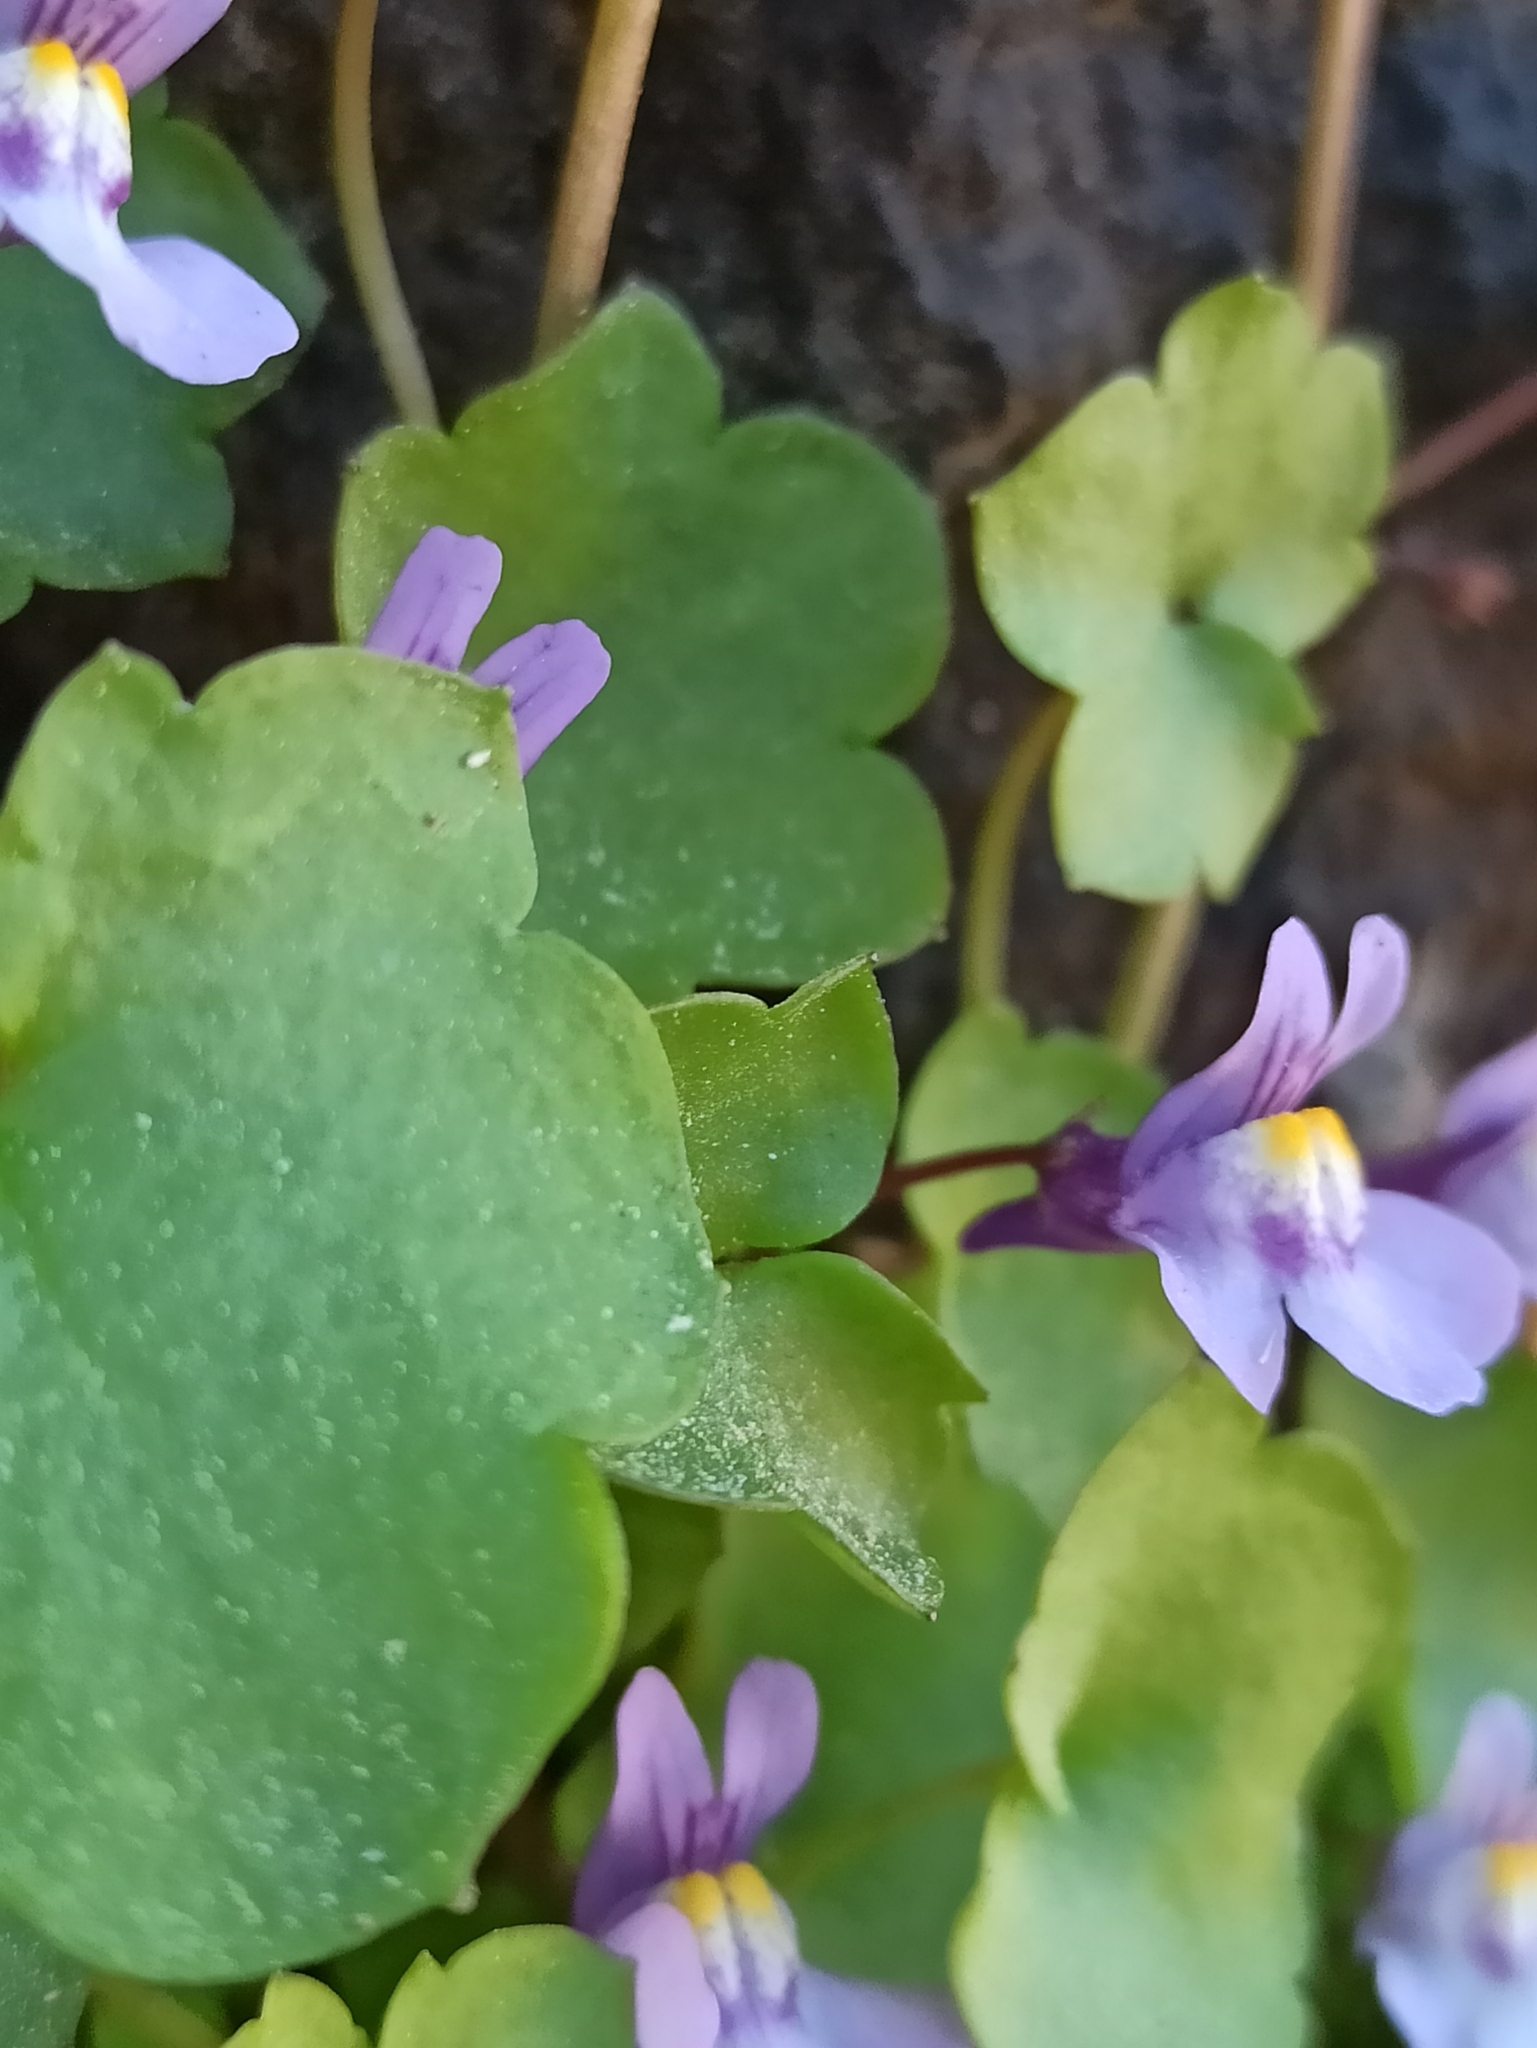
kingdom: Plantae
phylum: Tracheophyta
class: Magnoliopsida
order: Lamiales
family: Plantaginaceae
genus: Cymbalaria
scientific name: Cymbalaria muralis
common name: Ivy-leaved toadflax
